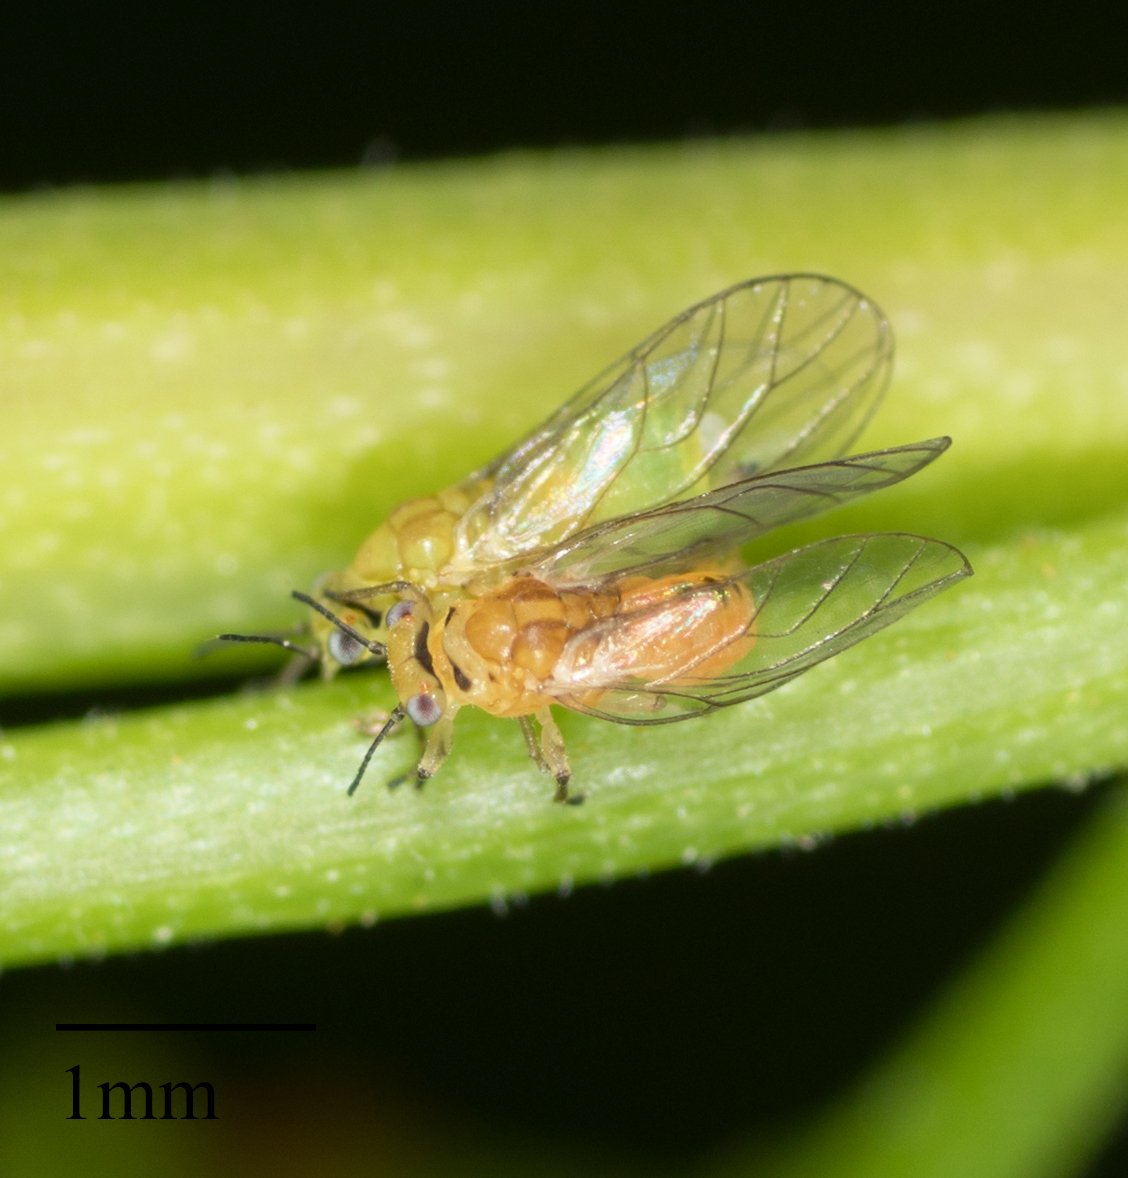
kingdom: Animalia
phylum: Arthropoda
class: Insecta
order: Hemiptera
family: Calophyidae
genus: Calophya
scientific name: Calophya schini
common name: Pepper tree psyllid
